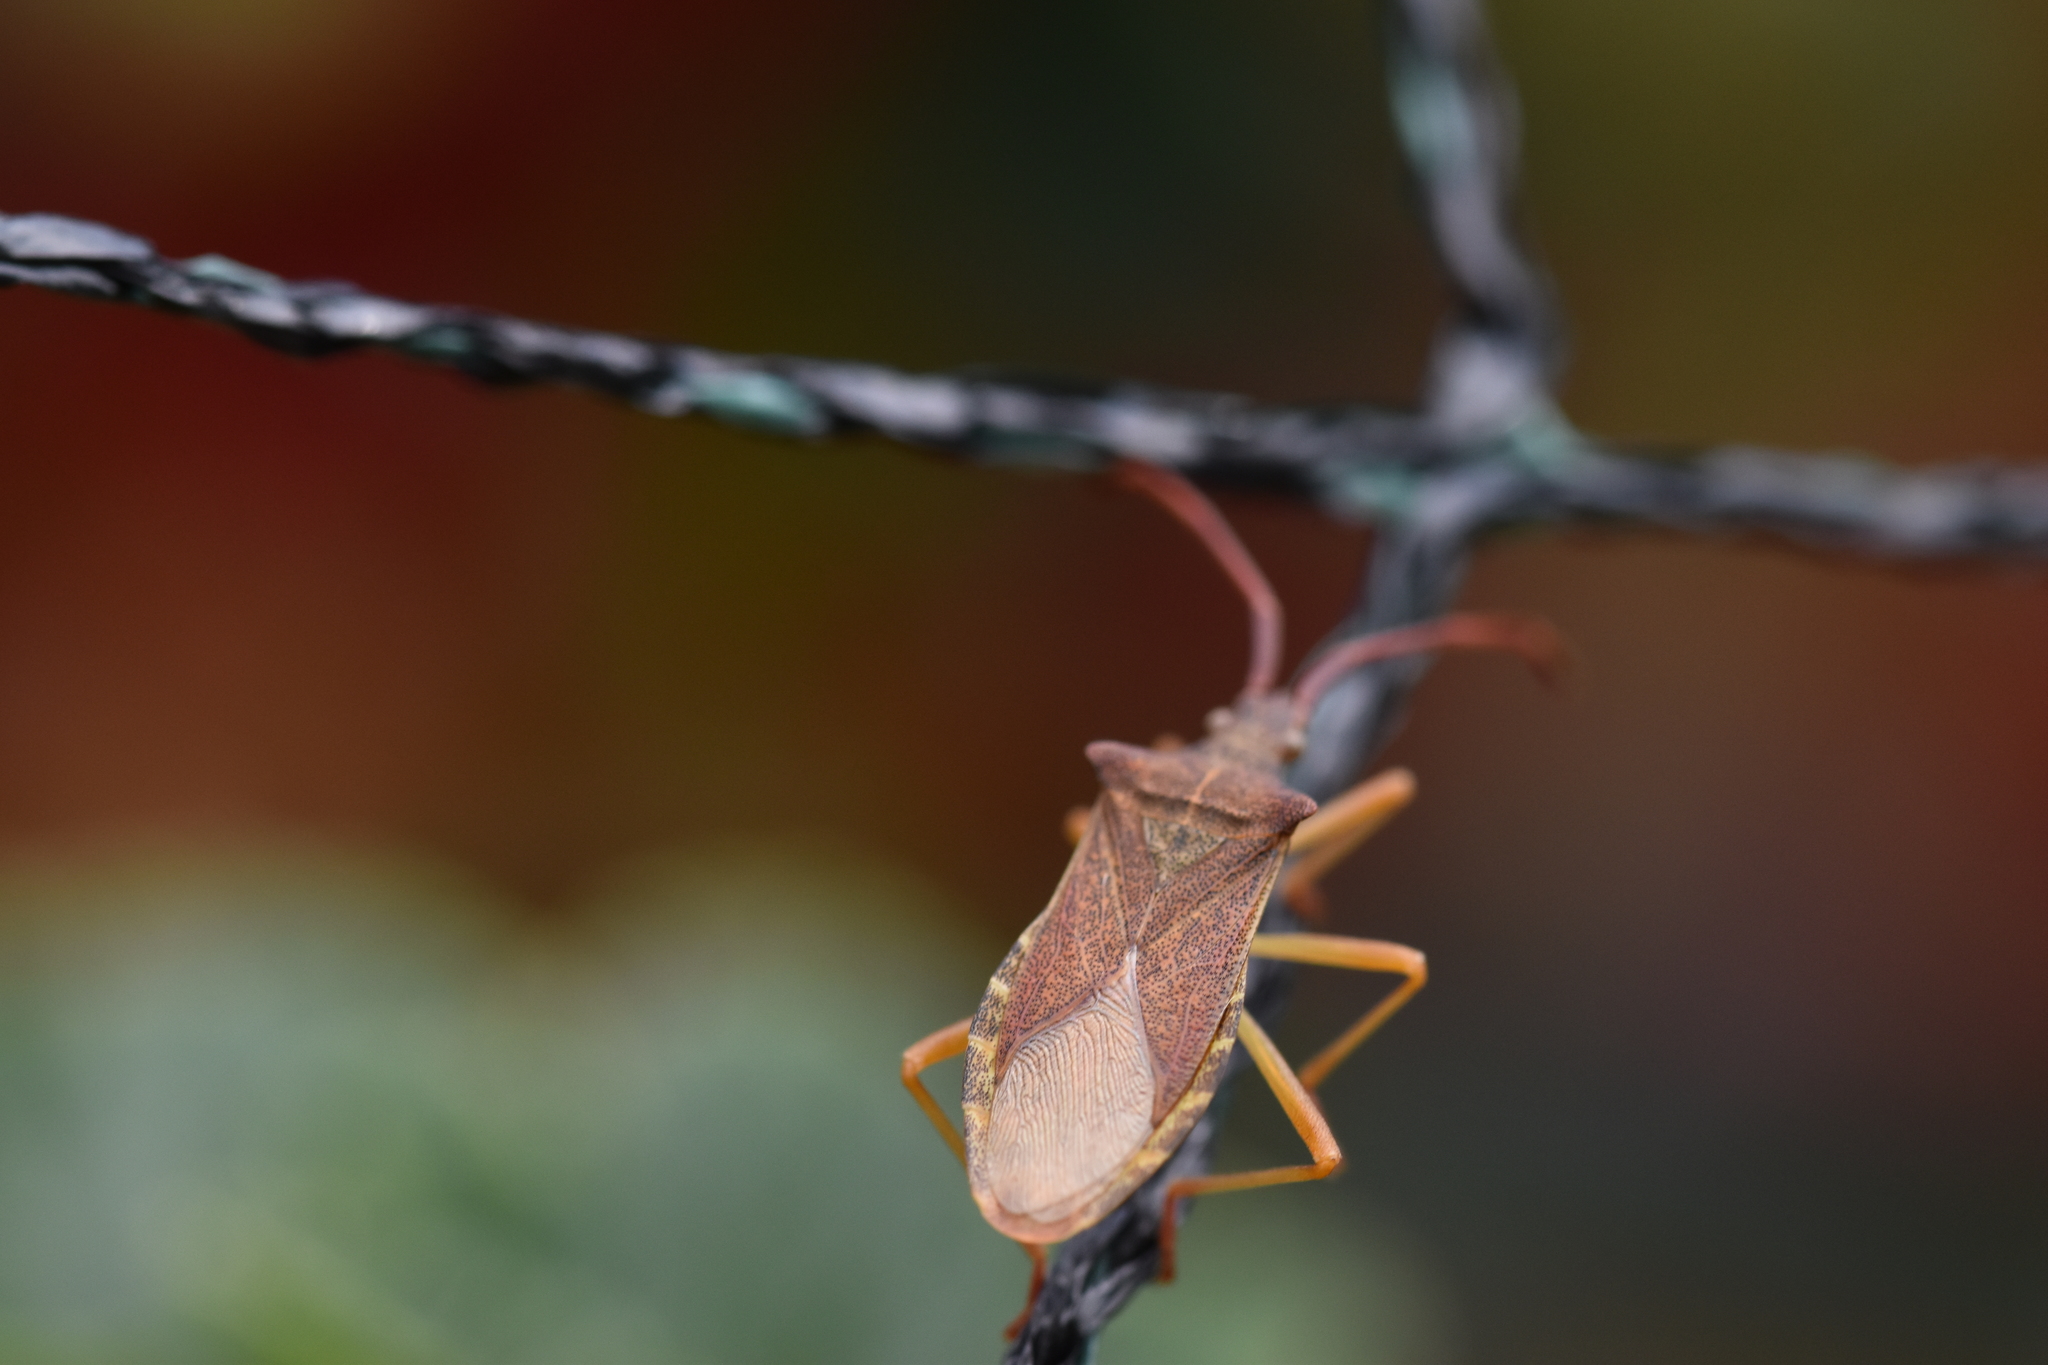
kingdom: Animalia
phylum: Arthropoda
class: Insecta
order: Hemiptera
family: Coreidae
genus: Gonocerus
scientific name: Gonocerus acuteangulatus
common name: Box bug
